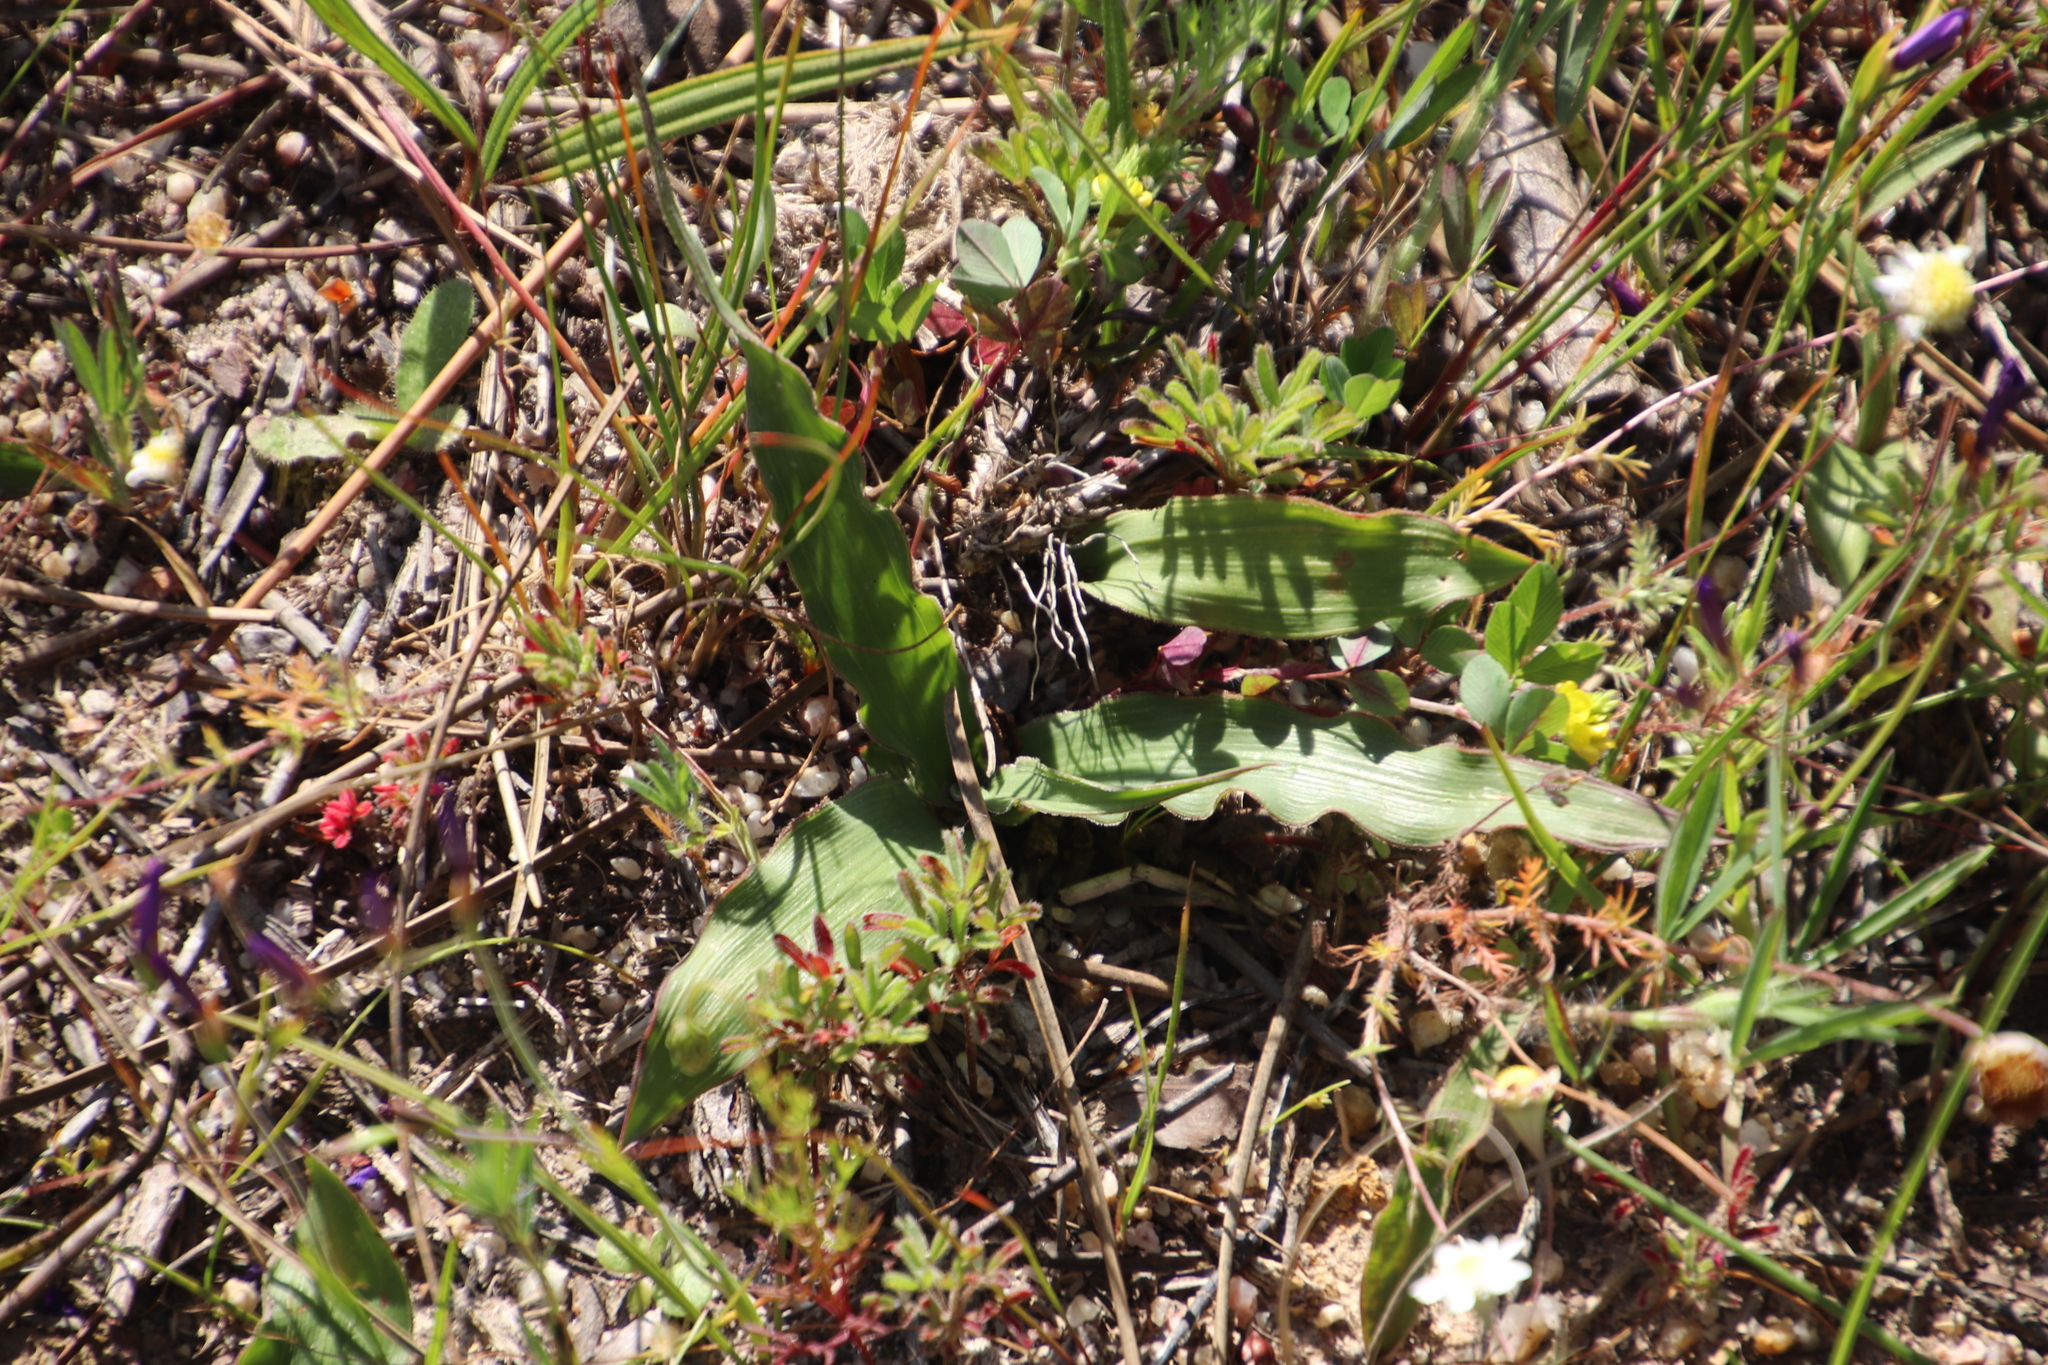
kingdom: Plantae
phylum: Tracheophyta
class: Liliopsida
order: Asparagales
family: Tecophilaeaceae
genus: Cyanella
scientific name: Cyanella hyacinthoides
